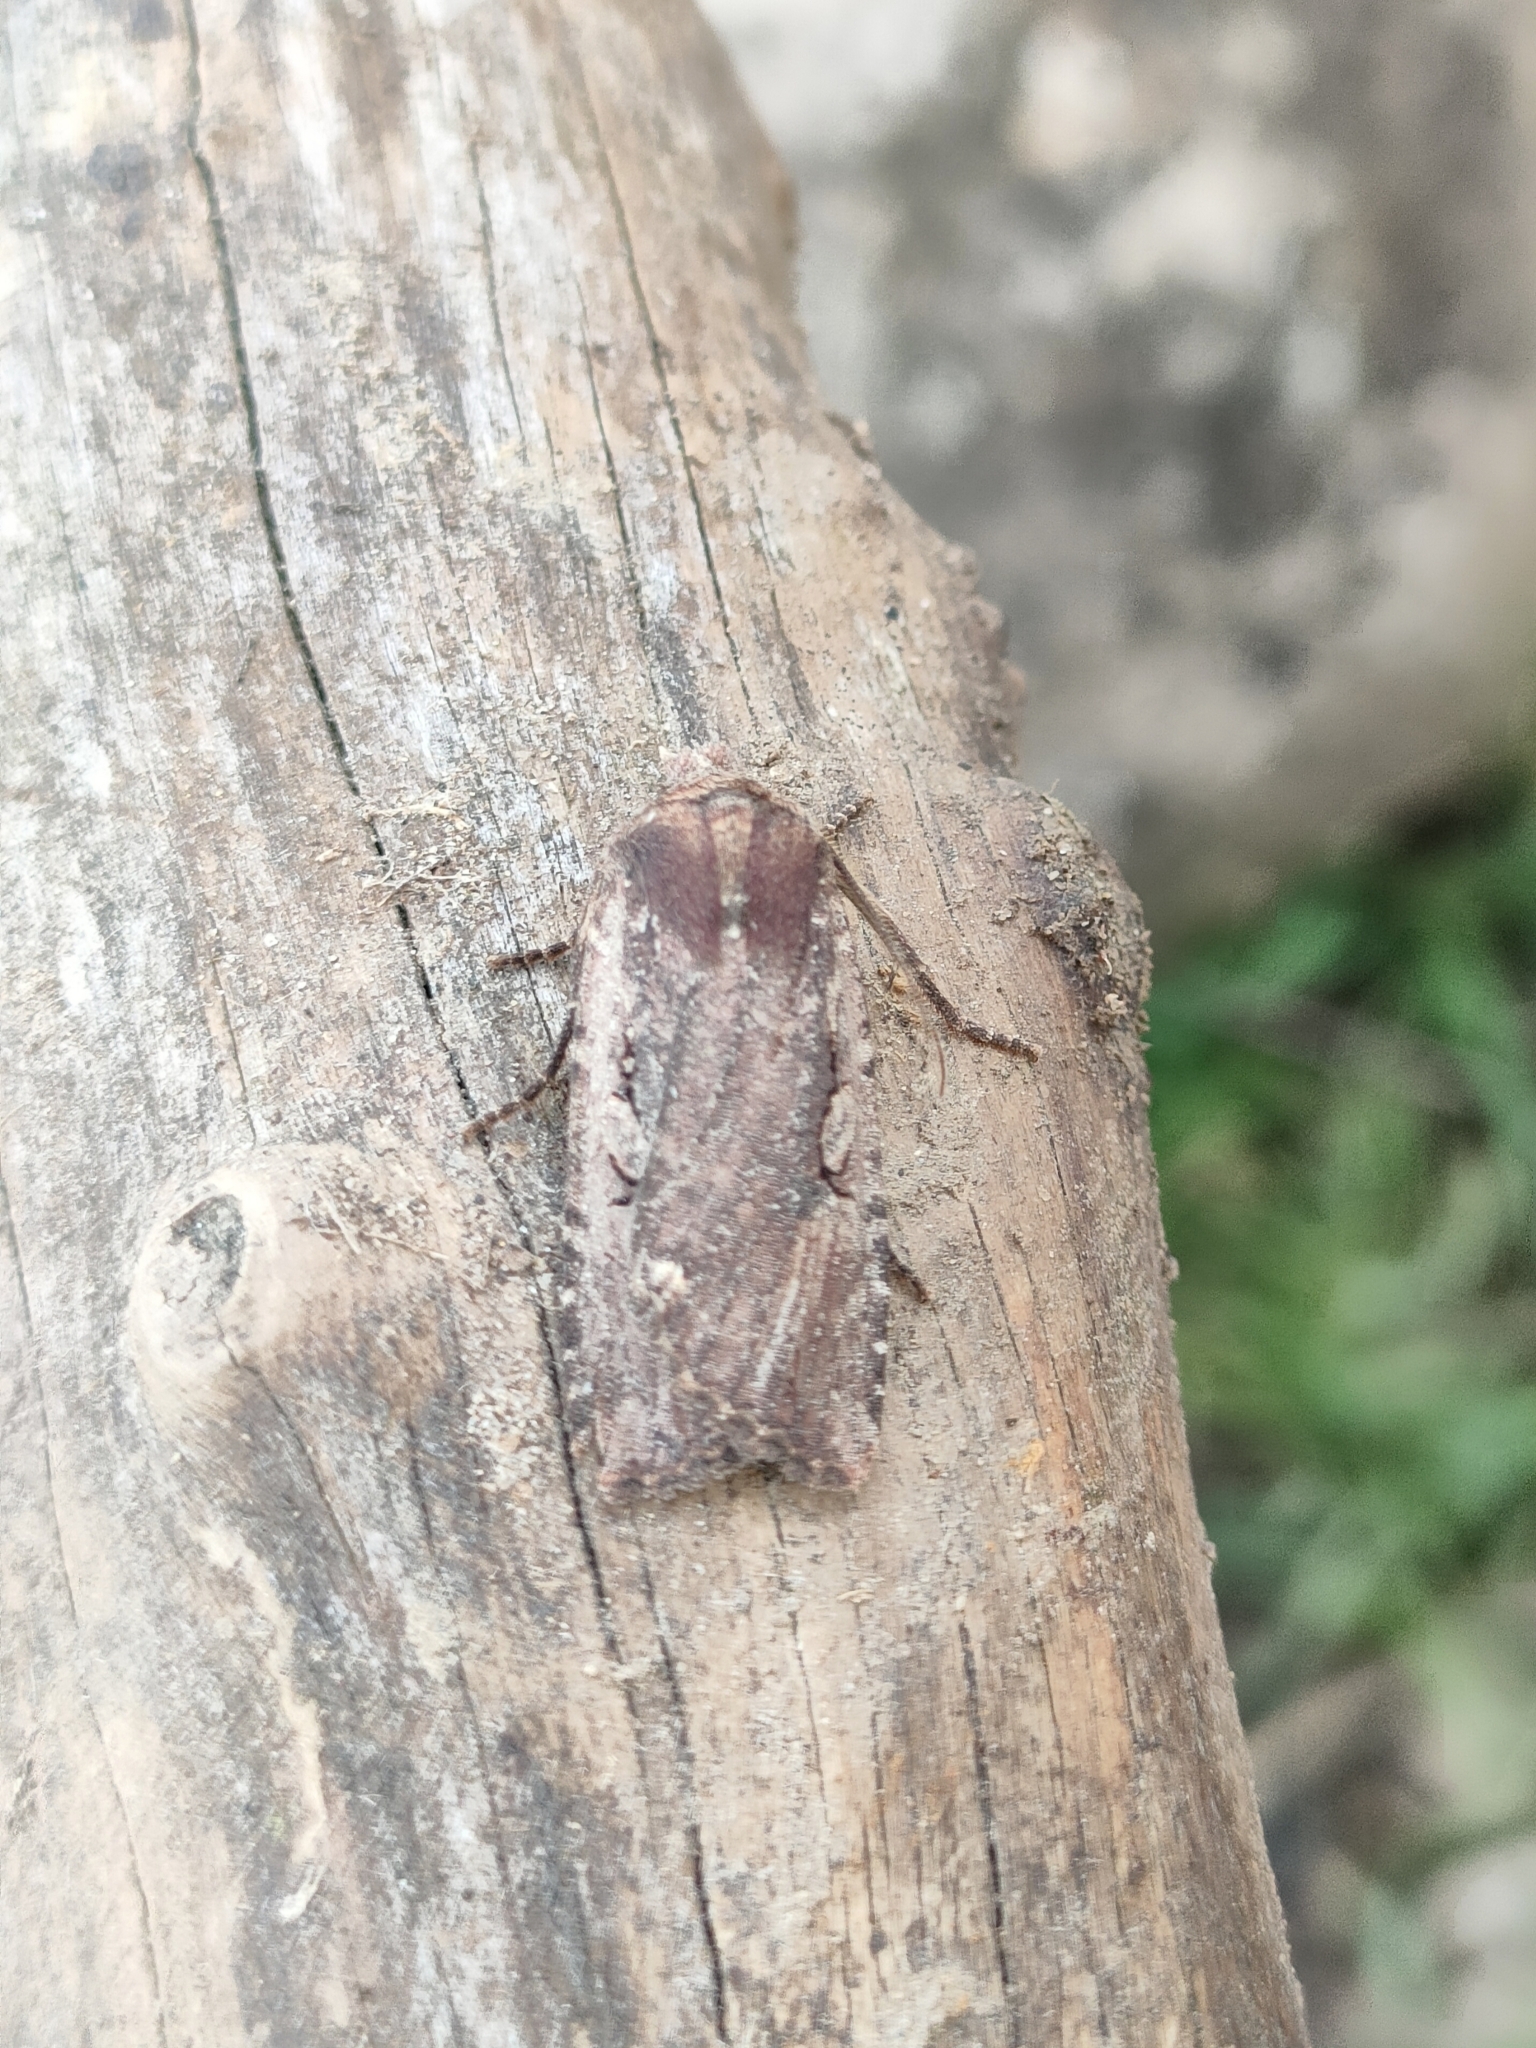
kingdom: Animalia
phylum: Arthropoda
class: Insecta
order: Lepidoptera
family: Noctuidae
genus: Conistra
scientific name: Conistra torrida
